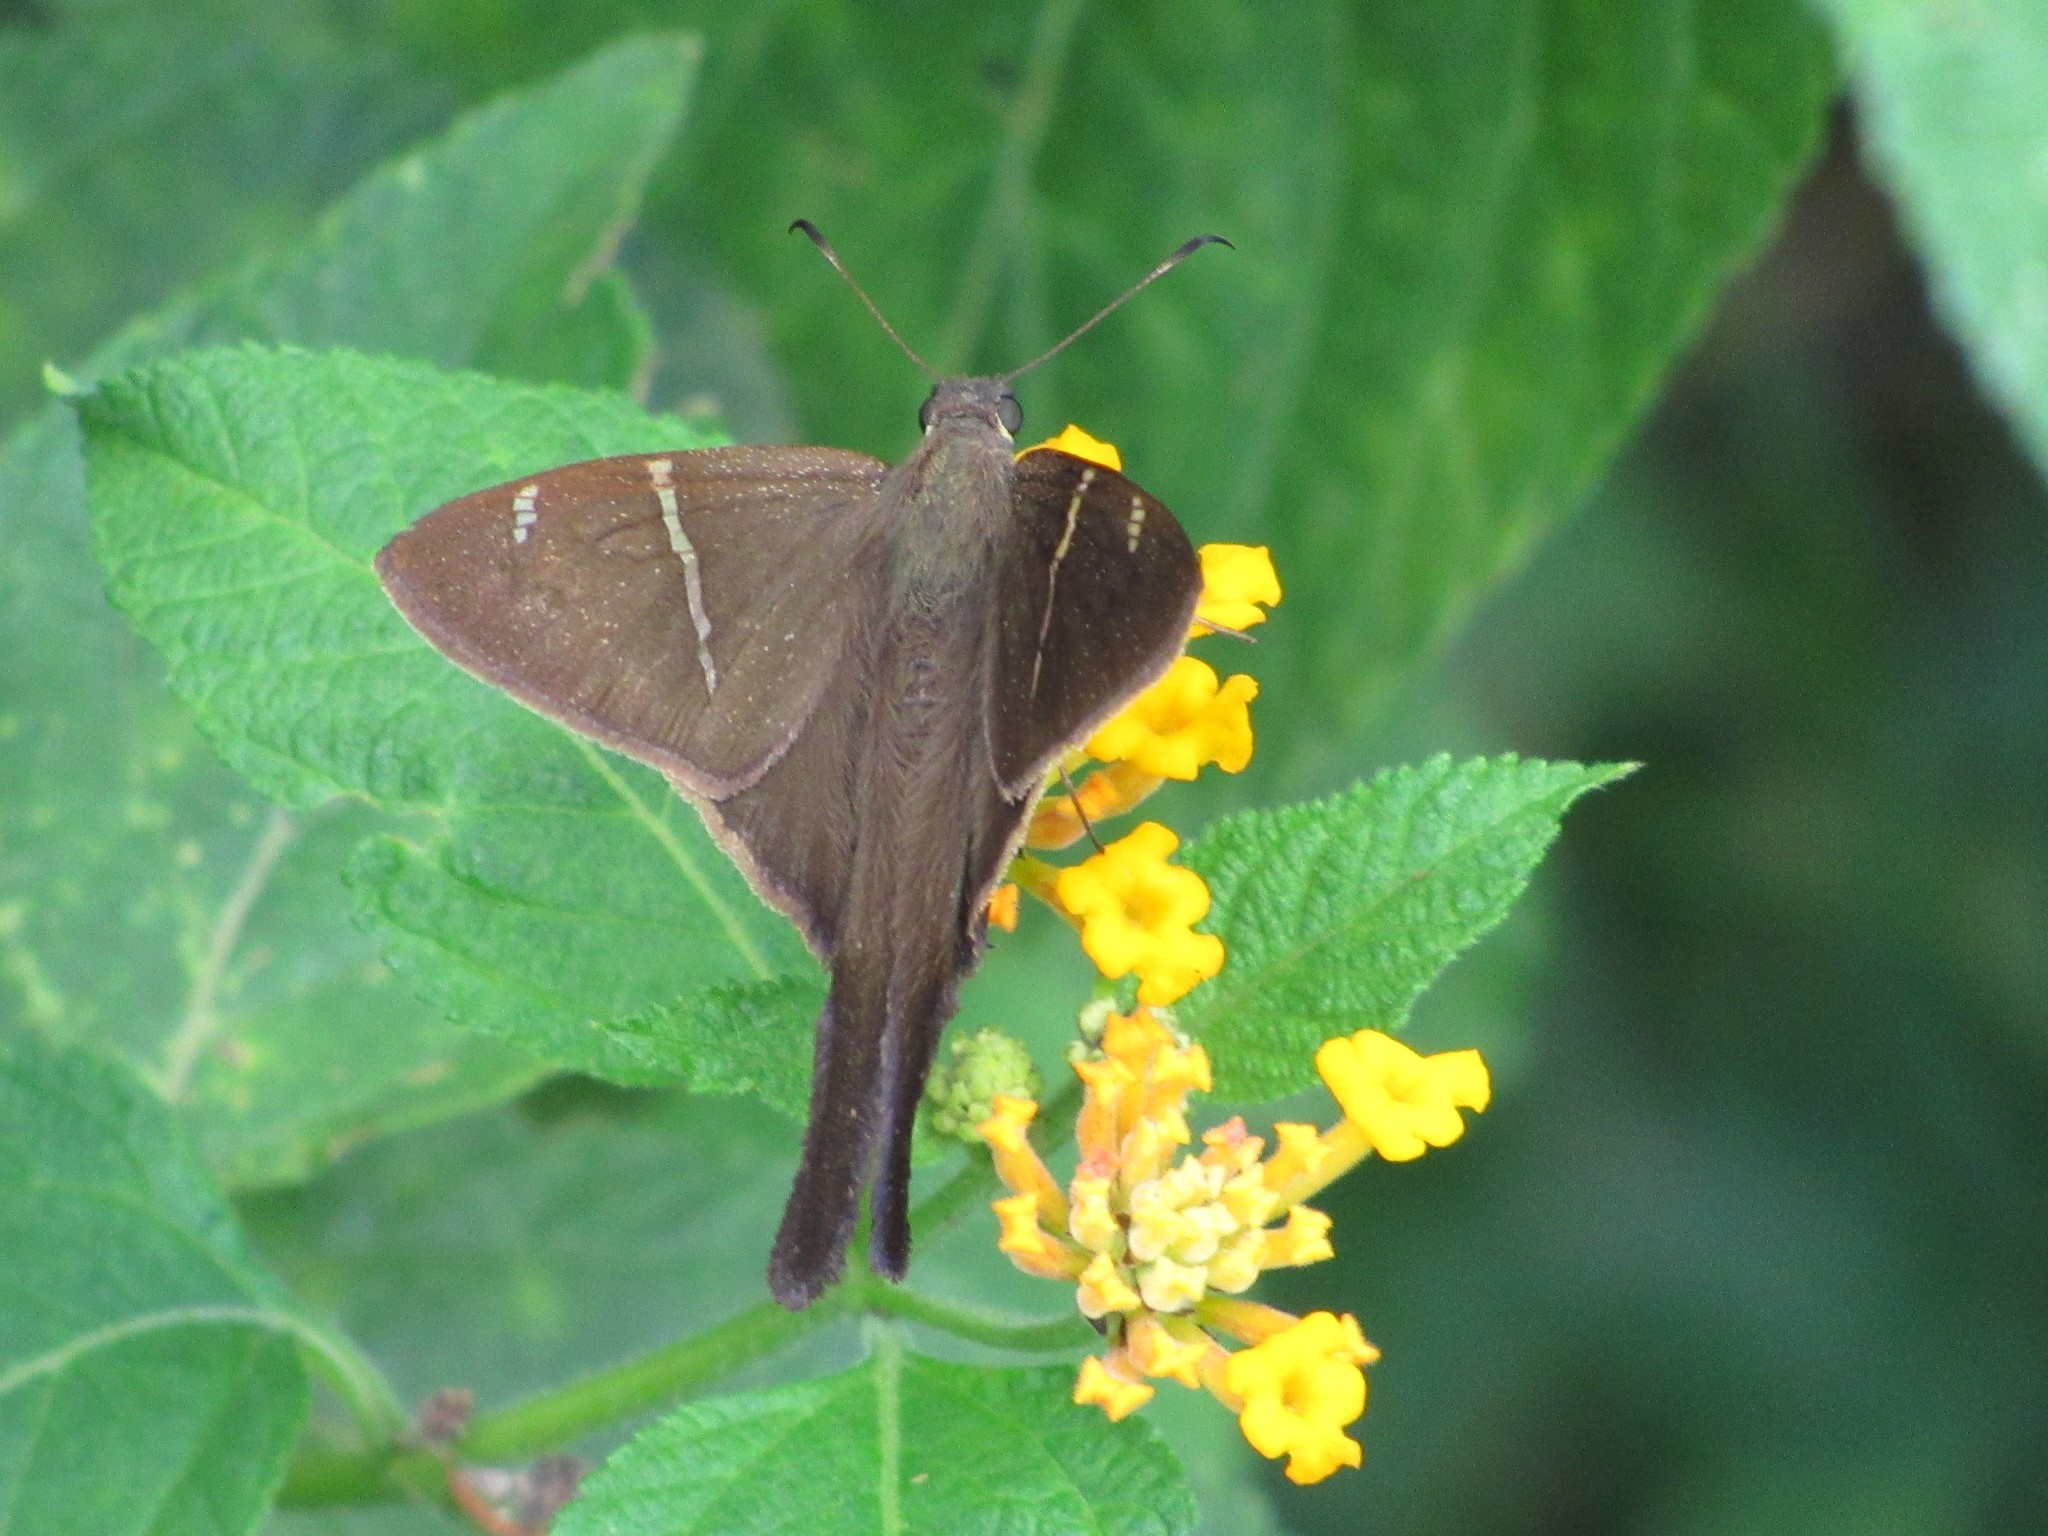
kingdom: Animalia
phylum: Arthropoda
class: Insecta
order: Lepidoptera
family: Hesperiidae
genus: Urbanus
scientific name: Urbanus teleus
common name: Teleus longtail
